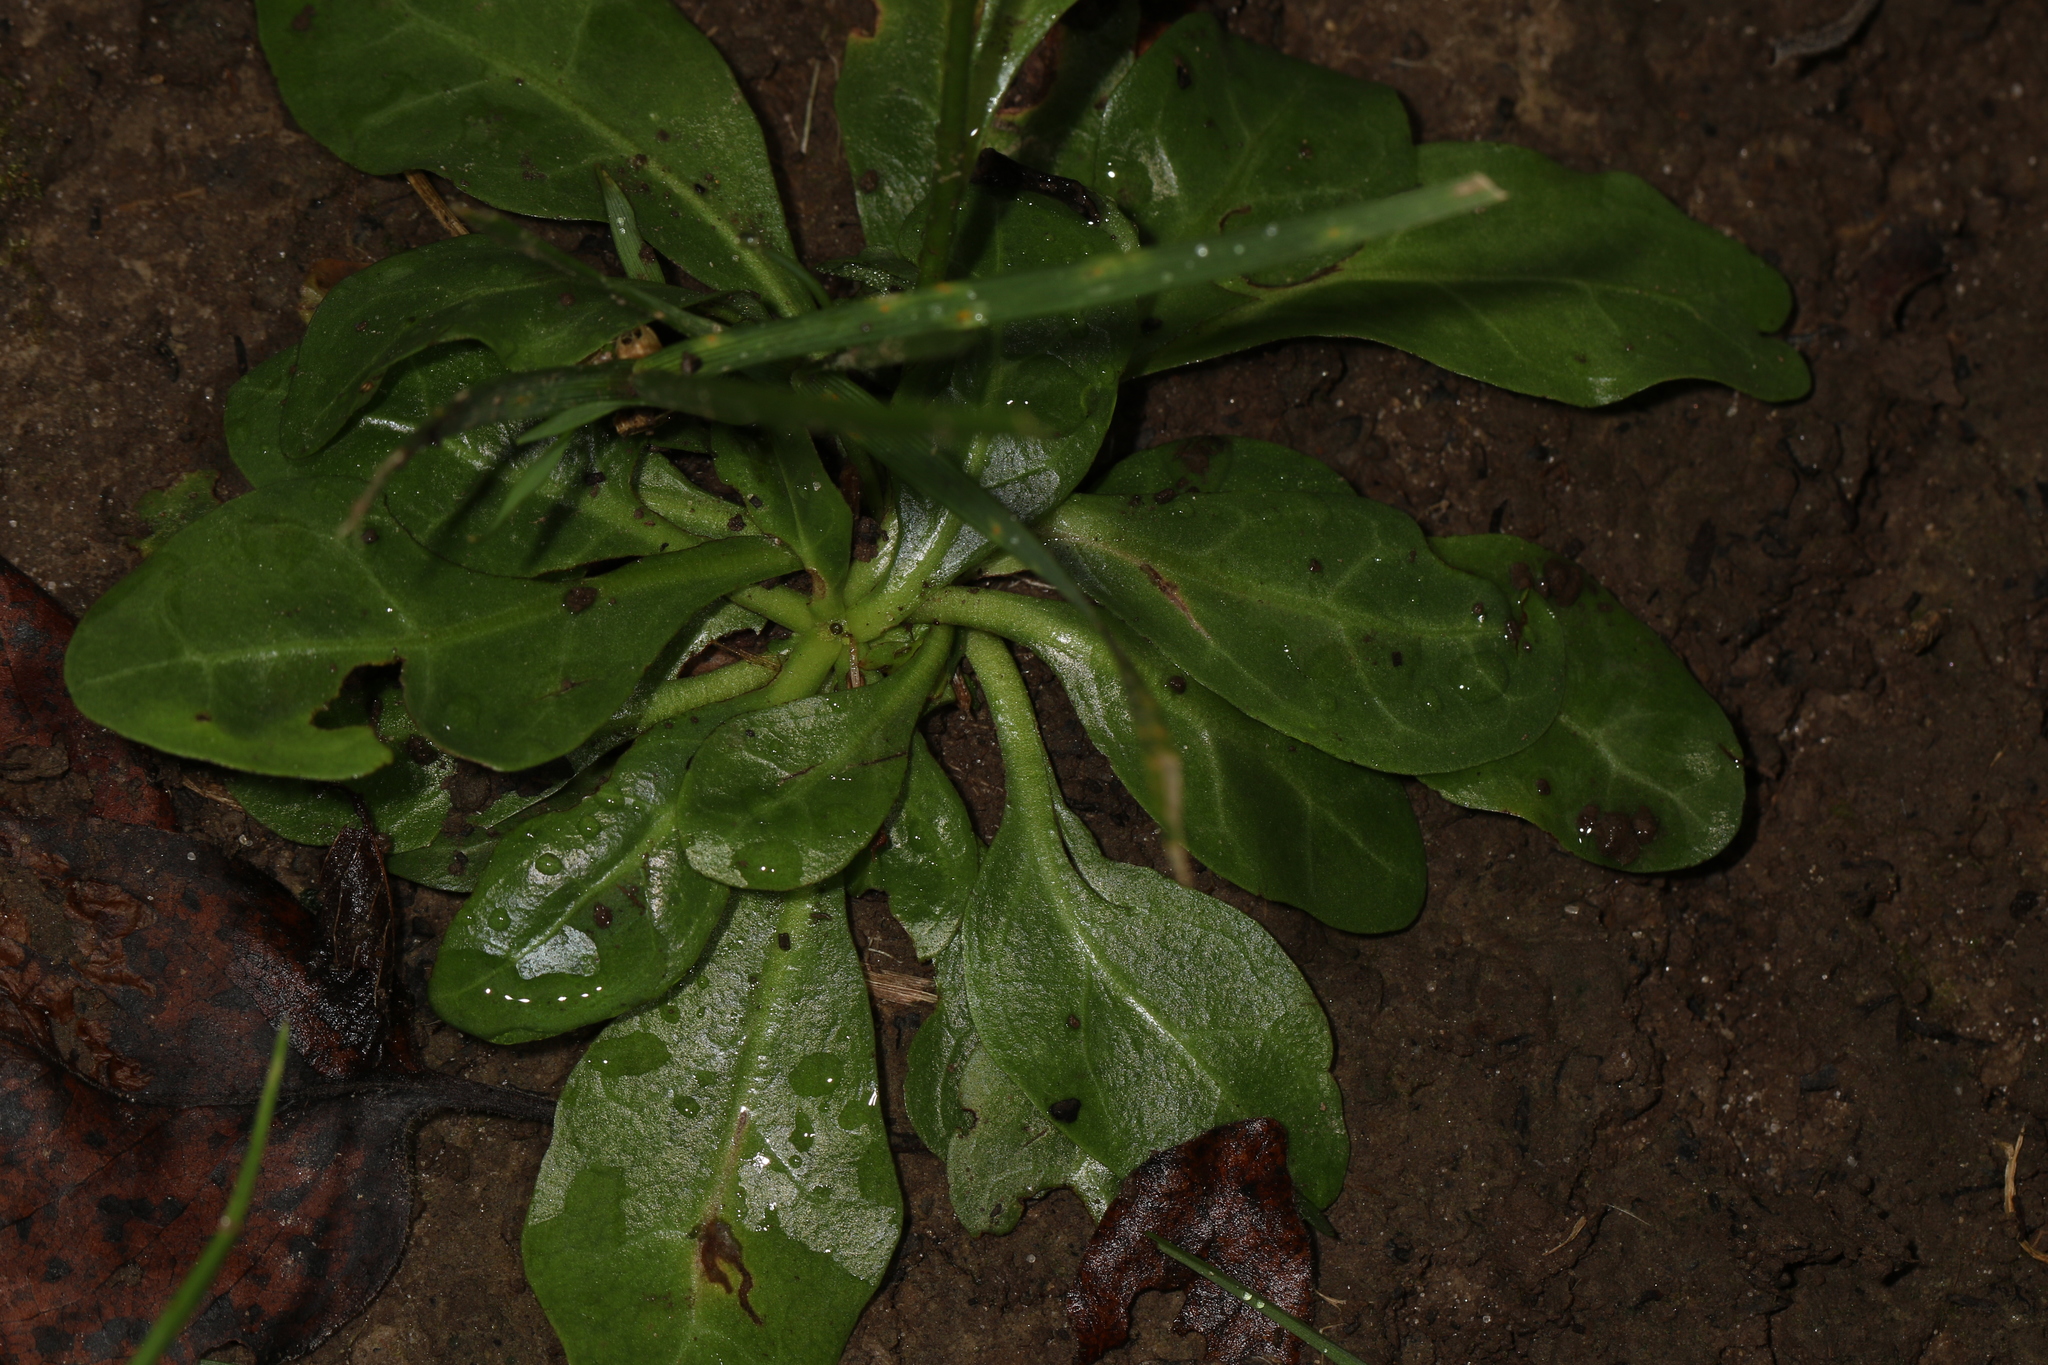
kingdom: Plantae
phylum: Tracheophyta
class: Magnoliopsida
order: Ericales
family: Primulaceae
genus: Samolus
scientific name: Samolus parviflorus
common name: False water pimpernel
